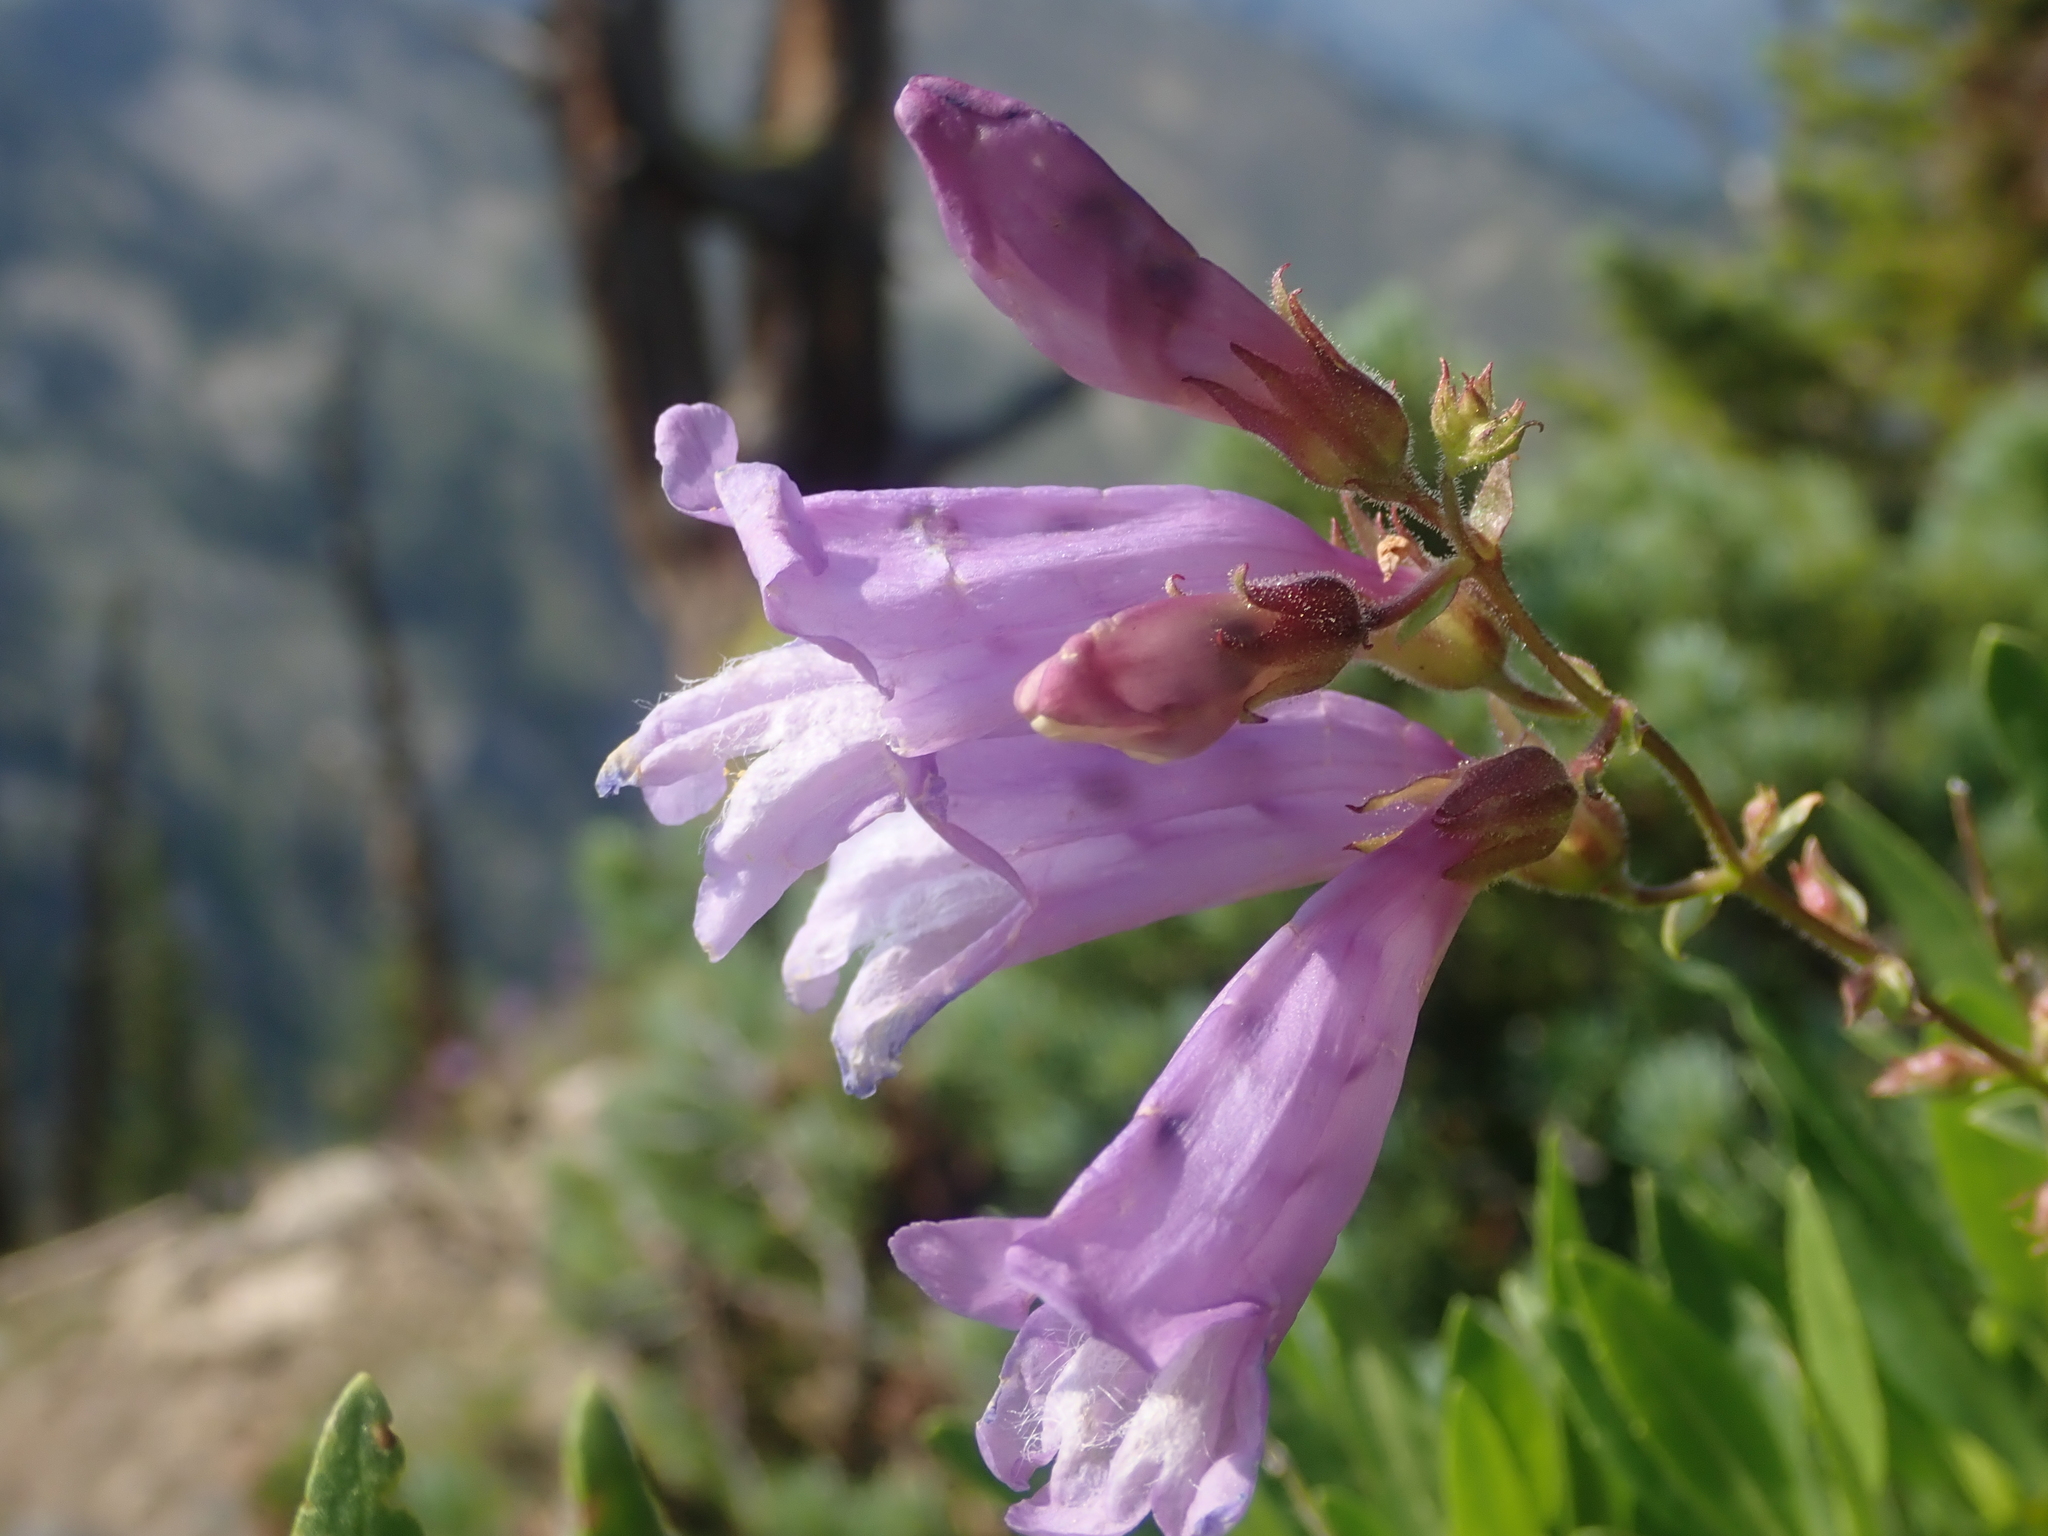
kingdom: Plantae
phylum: Tracheophyta
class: Magnoliopsida
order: Lamiales
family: Plantaginaceae
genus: Penstemon
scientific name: Penstemon fruticosus
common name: Bush penstemon
